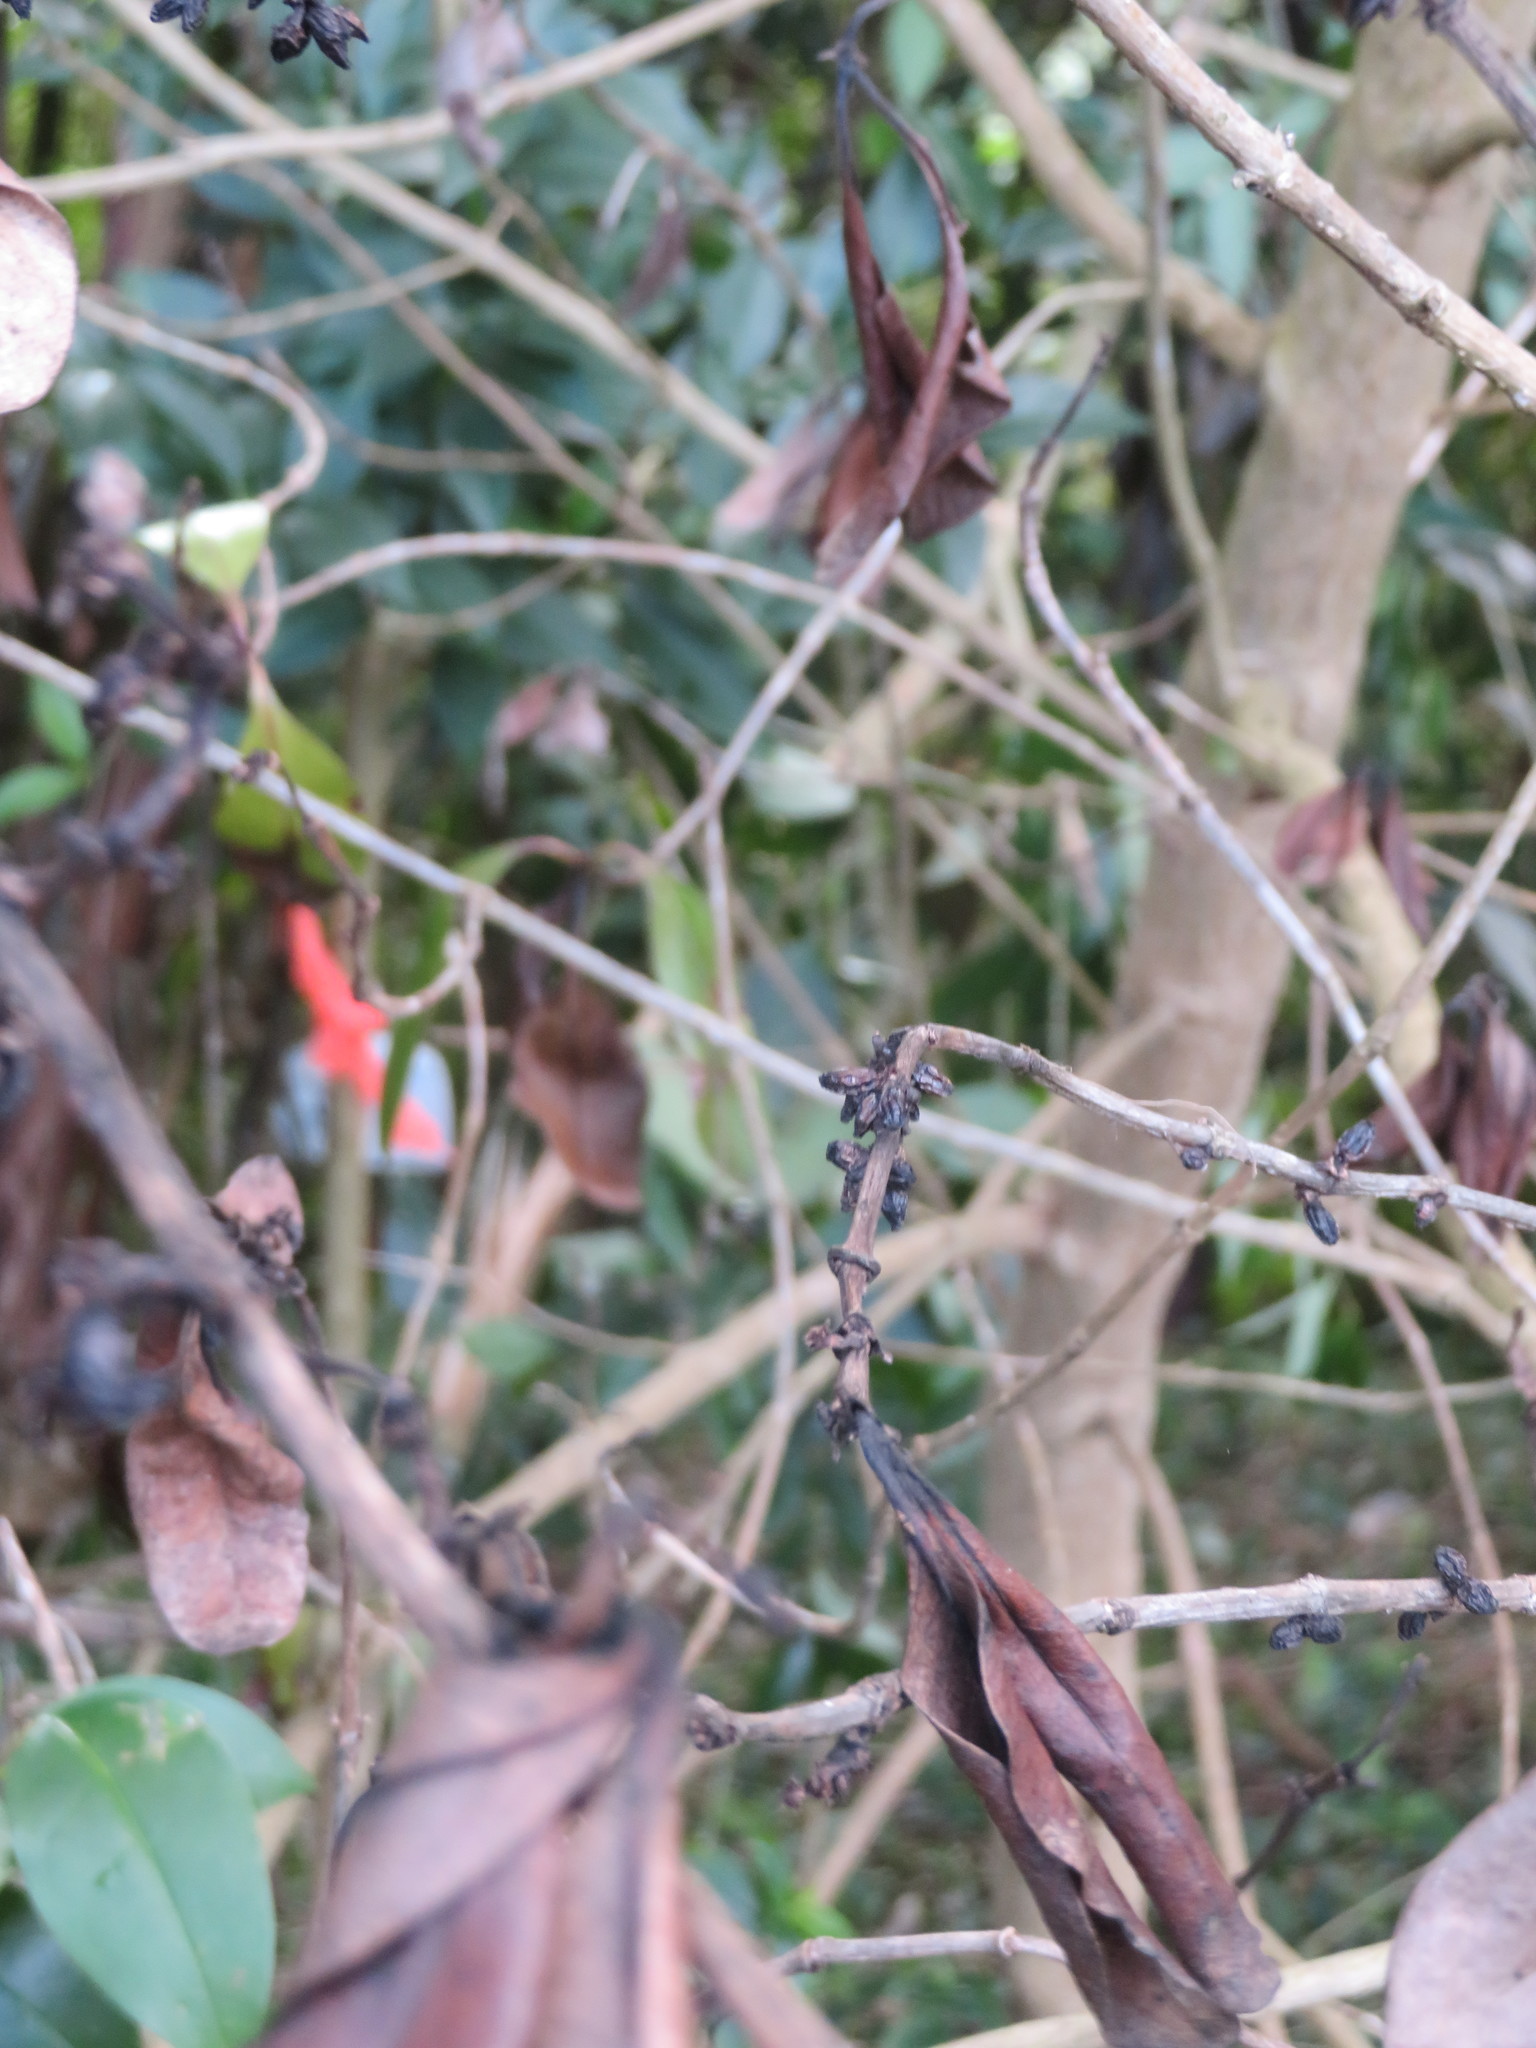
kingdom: Plantae
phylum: Tracheophyta
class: Magnoliopsida
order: Gentianales
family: Rubiaceae
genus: Coprosma
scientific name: Coprosma robusta
